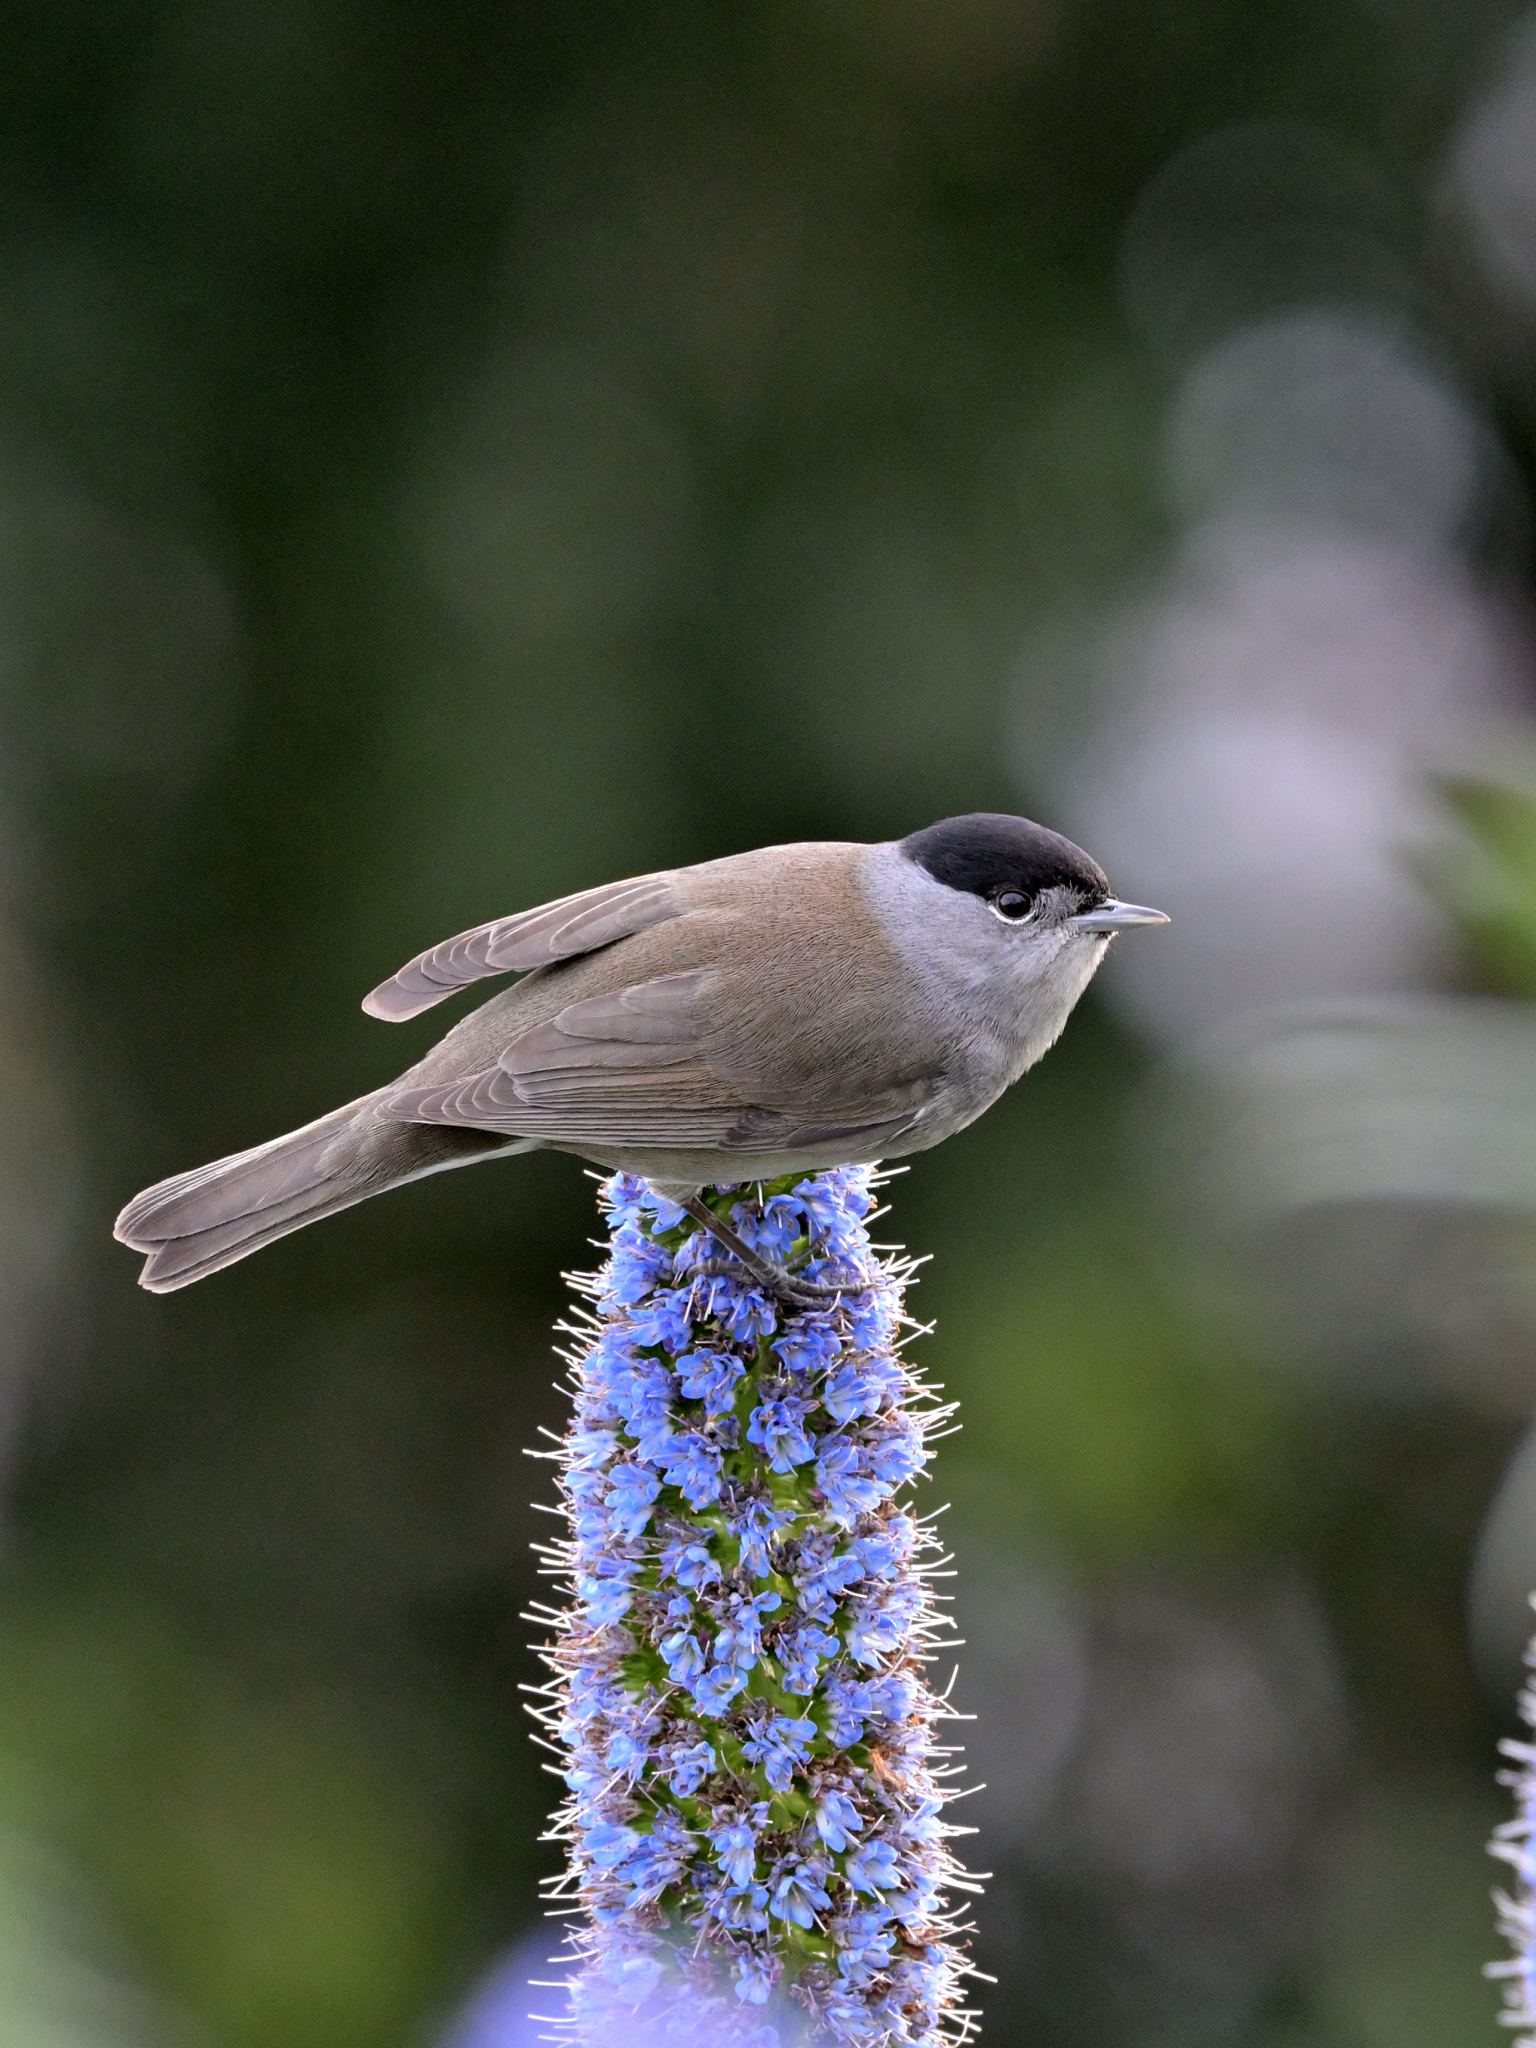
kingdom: Animalia
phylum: Chordata
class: Aves
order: Passeriformes
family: Sylviidae
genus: Sylvia
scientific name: Sylvia atricapilla
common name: Eurasian blackcap
